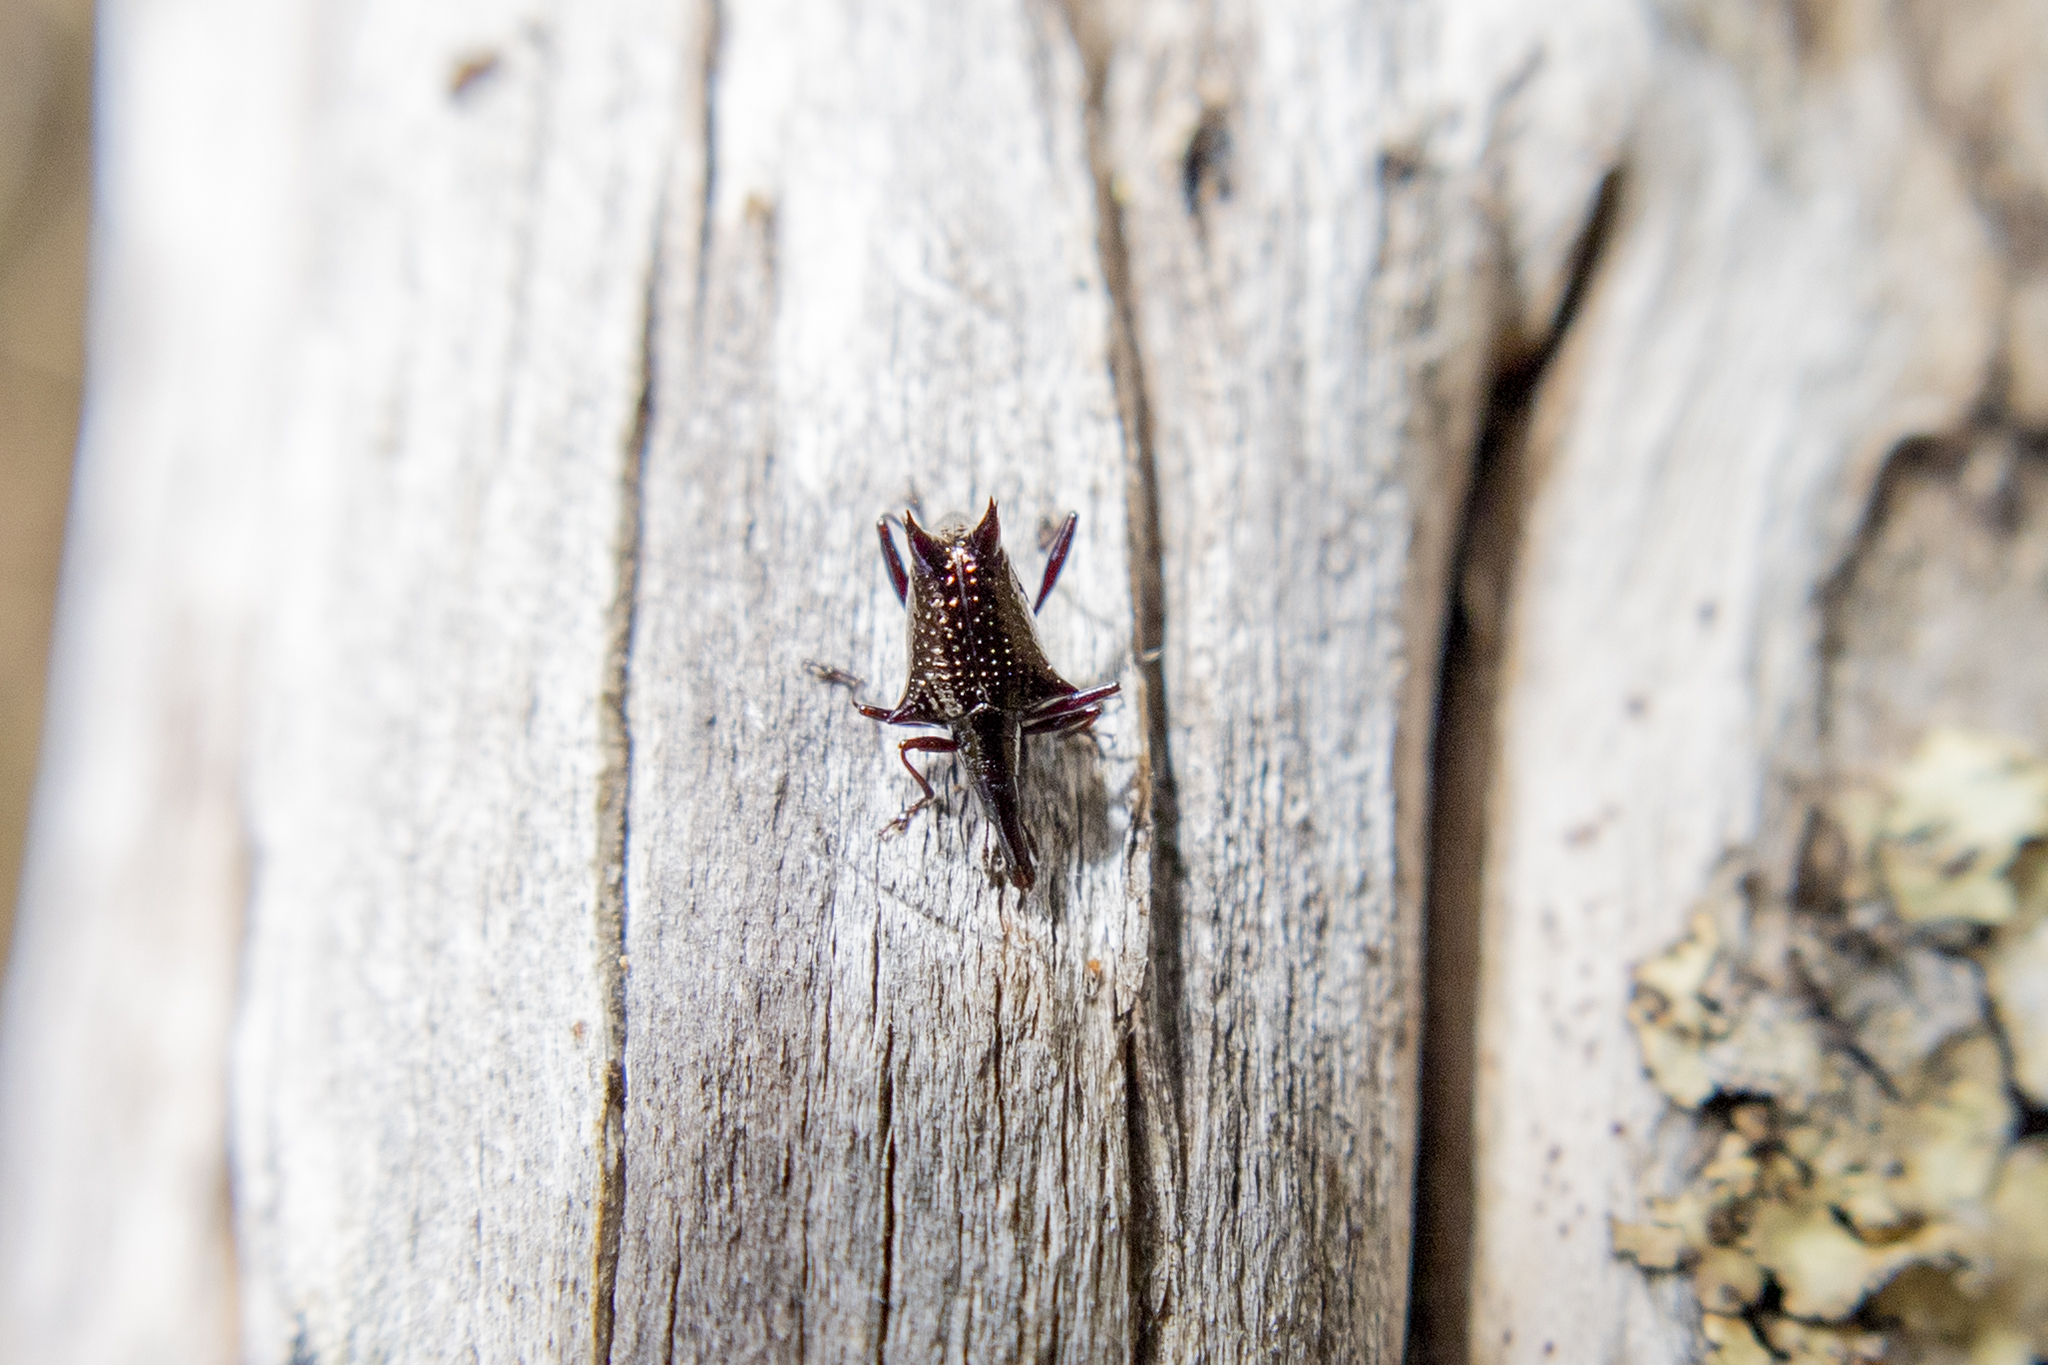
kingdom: Animalia
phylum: Arthropoda
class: Insecta
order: Coleoptera
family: Curculionidae
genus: Scolopterus
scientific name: Scolopterus aequus
